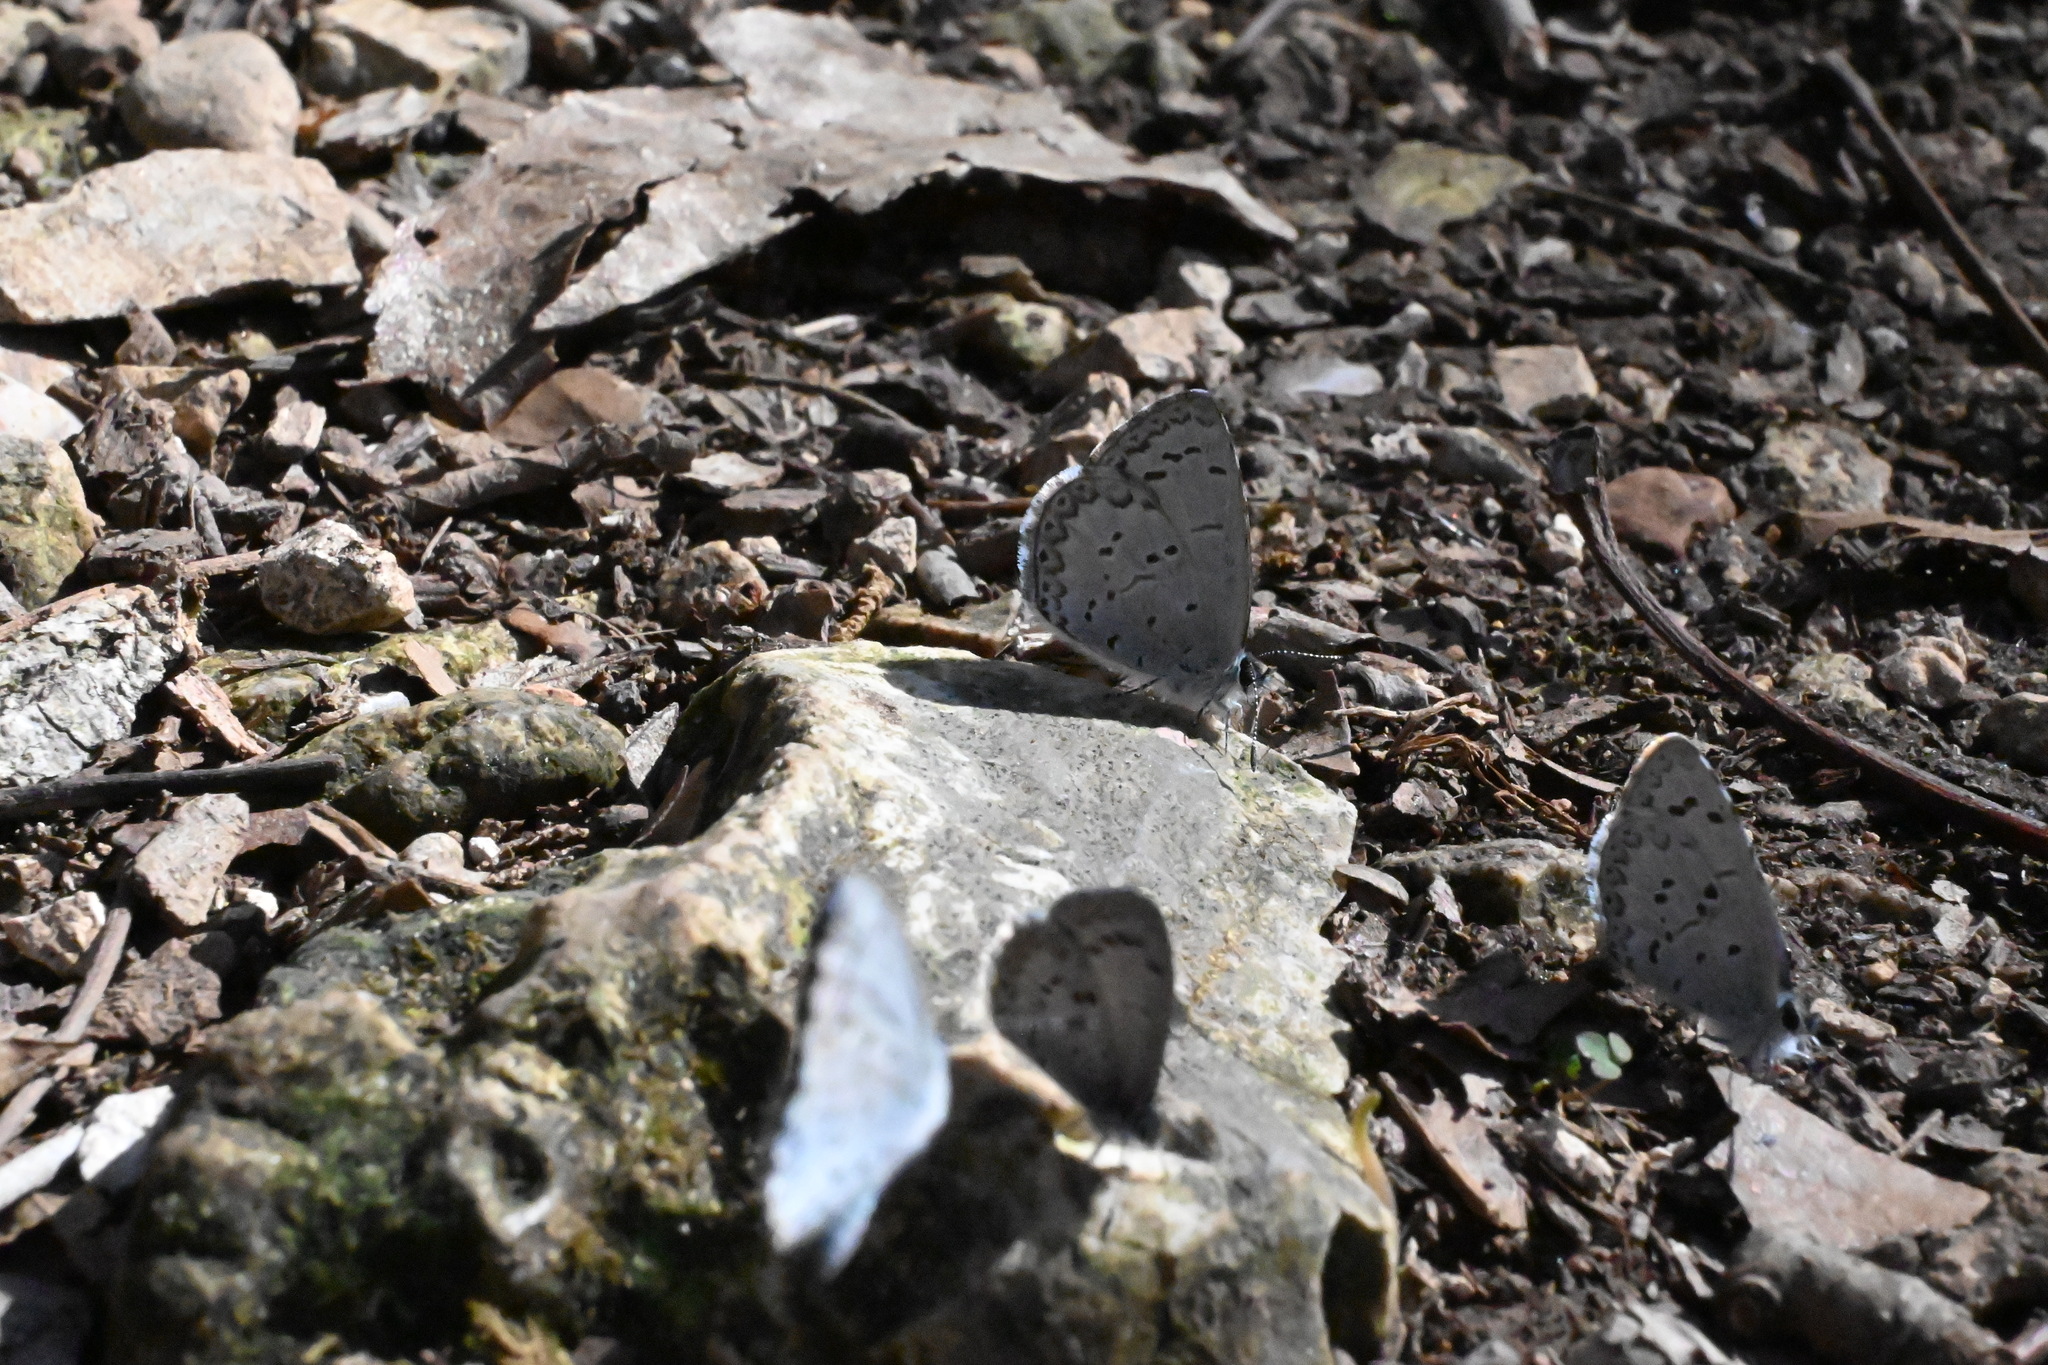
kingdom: Animalia
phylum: Arthropoda
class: Insecta
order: Lepidoptera
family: Lycaenidae
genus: Celastrina
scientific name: Celastrina ladon
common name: Spring azure
